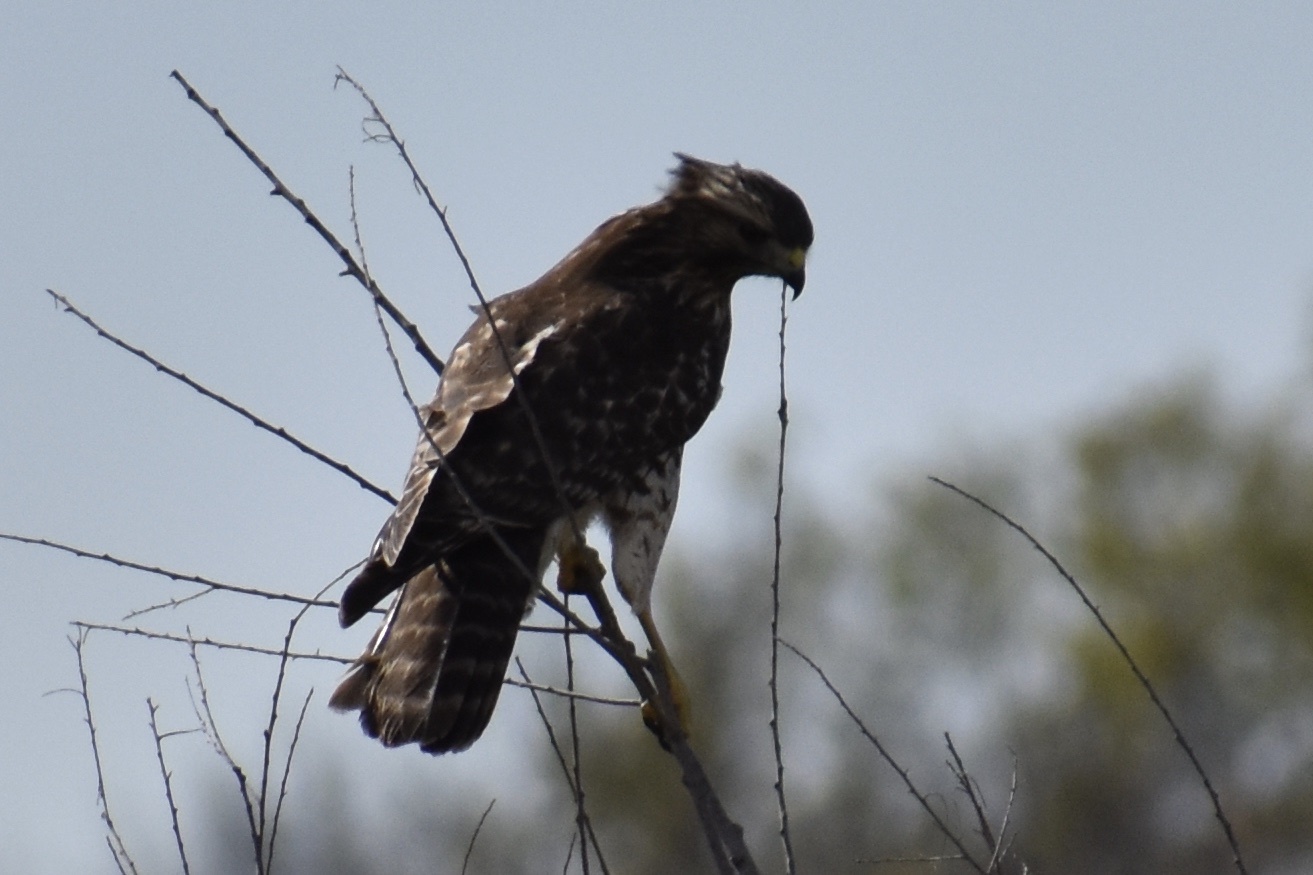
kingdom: Animalia
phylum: Chordata
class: Aves
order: Accipitriformes
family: Accipitridae
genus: Buteo
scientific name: Buteo lineatus
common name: Red-shouldered hawk
